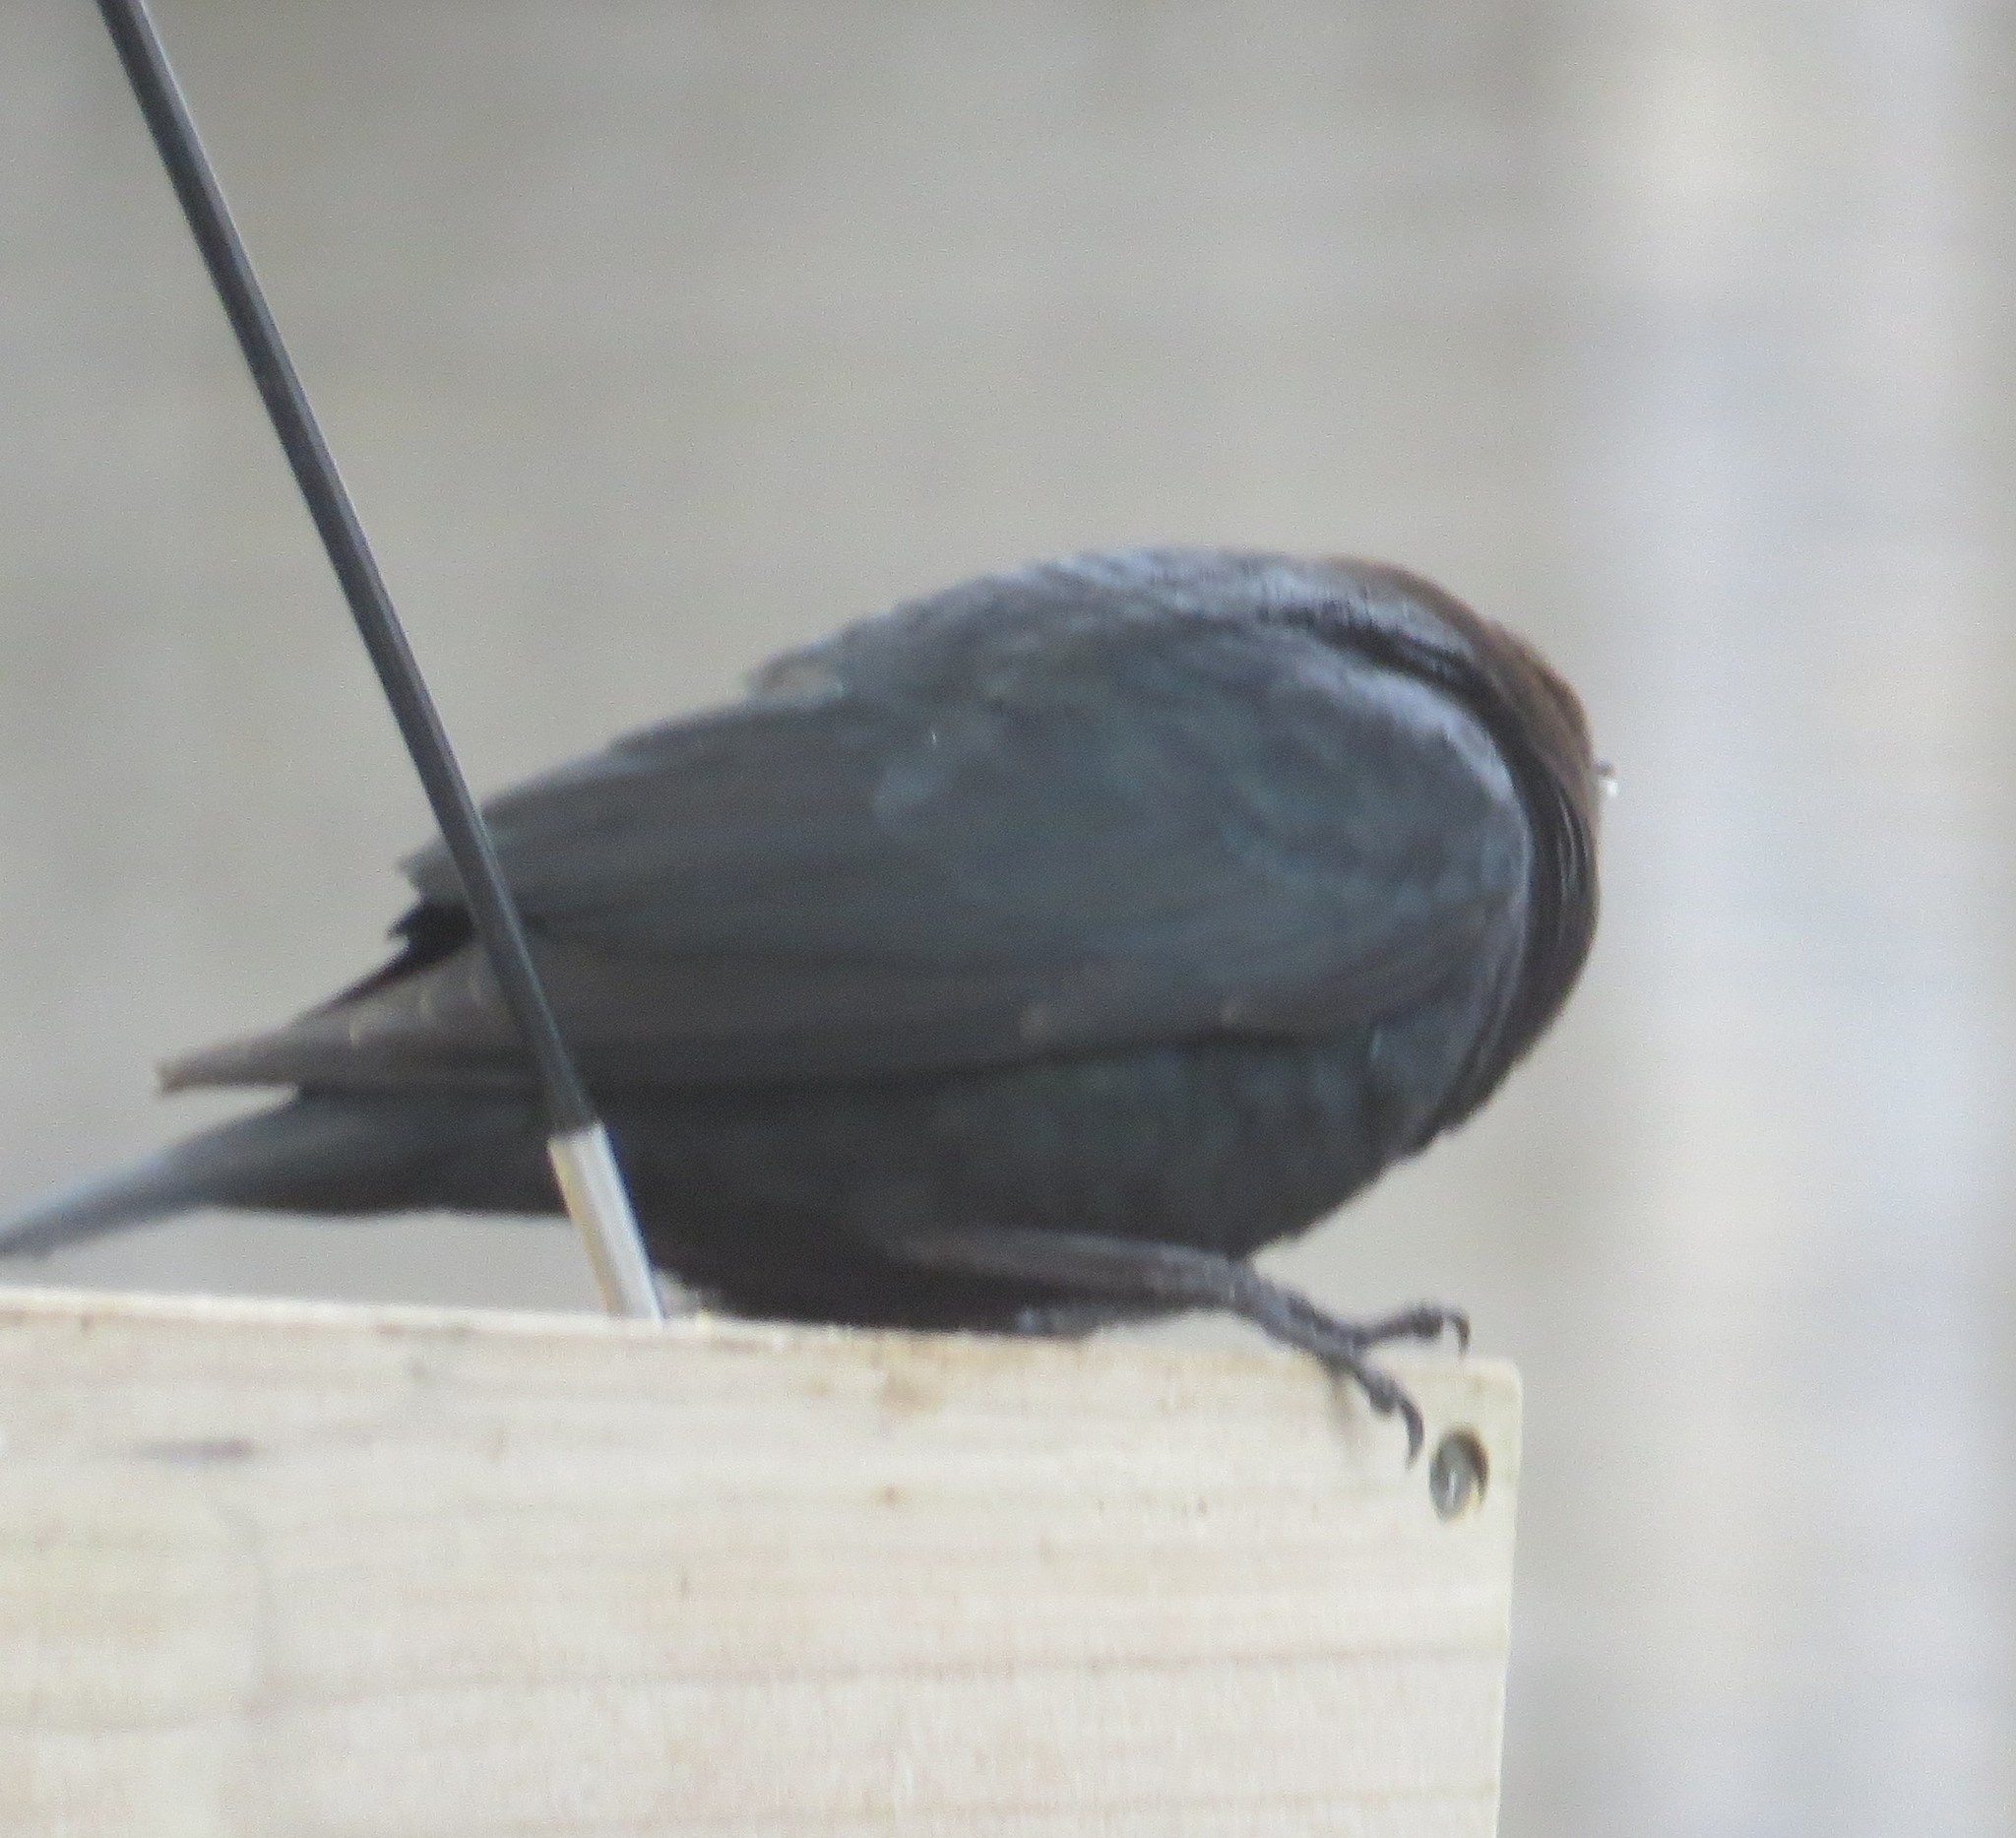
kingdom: Animalia
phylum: Chordata
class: Aves
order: Passeriformes
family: Icteridae
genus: Molothrus
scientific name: Molothrus ater
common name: Brown-headed cowbird
